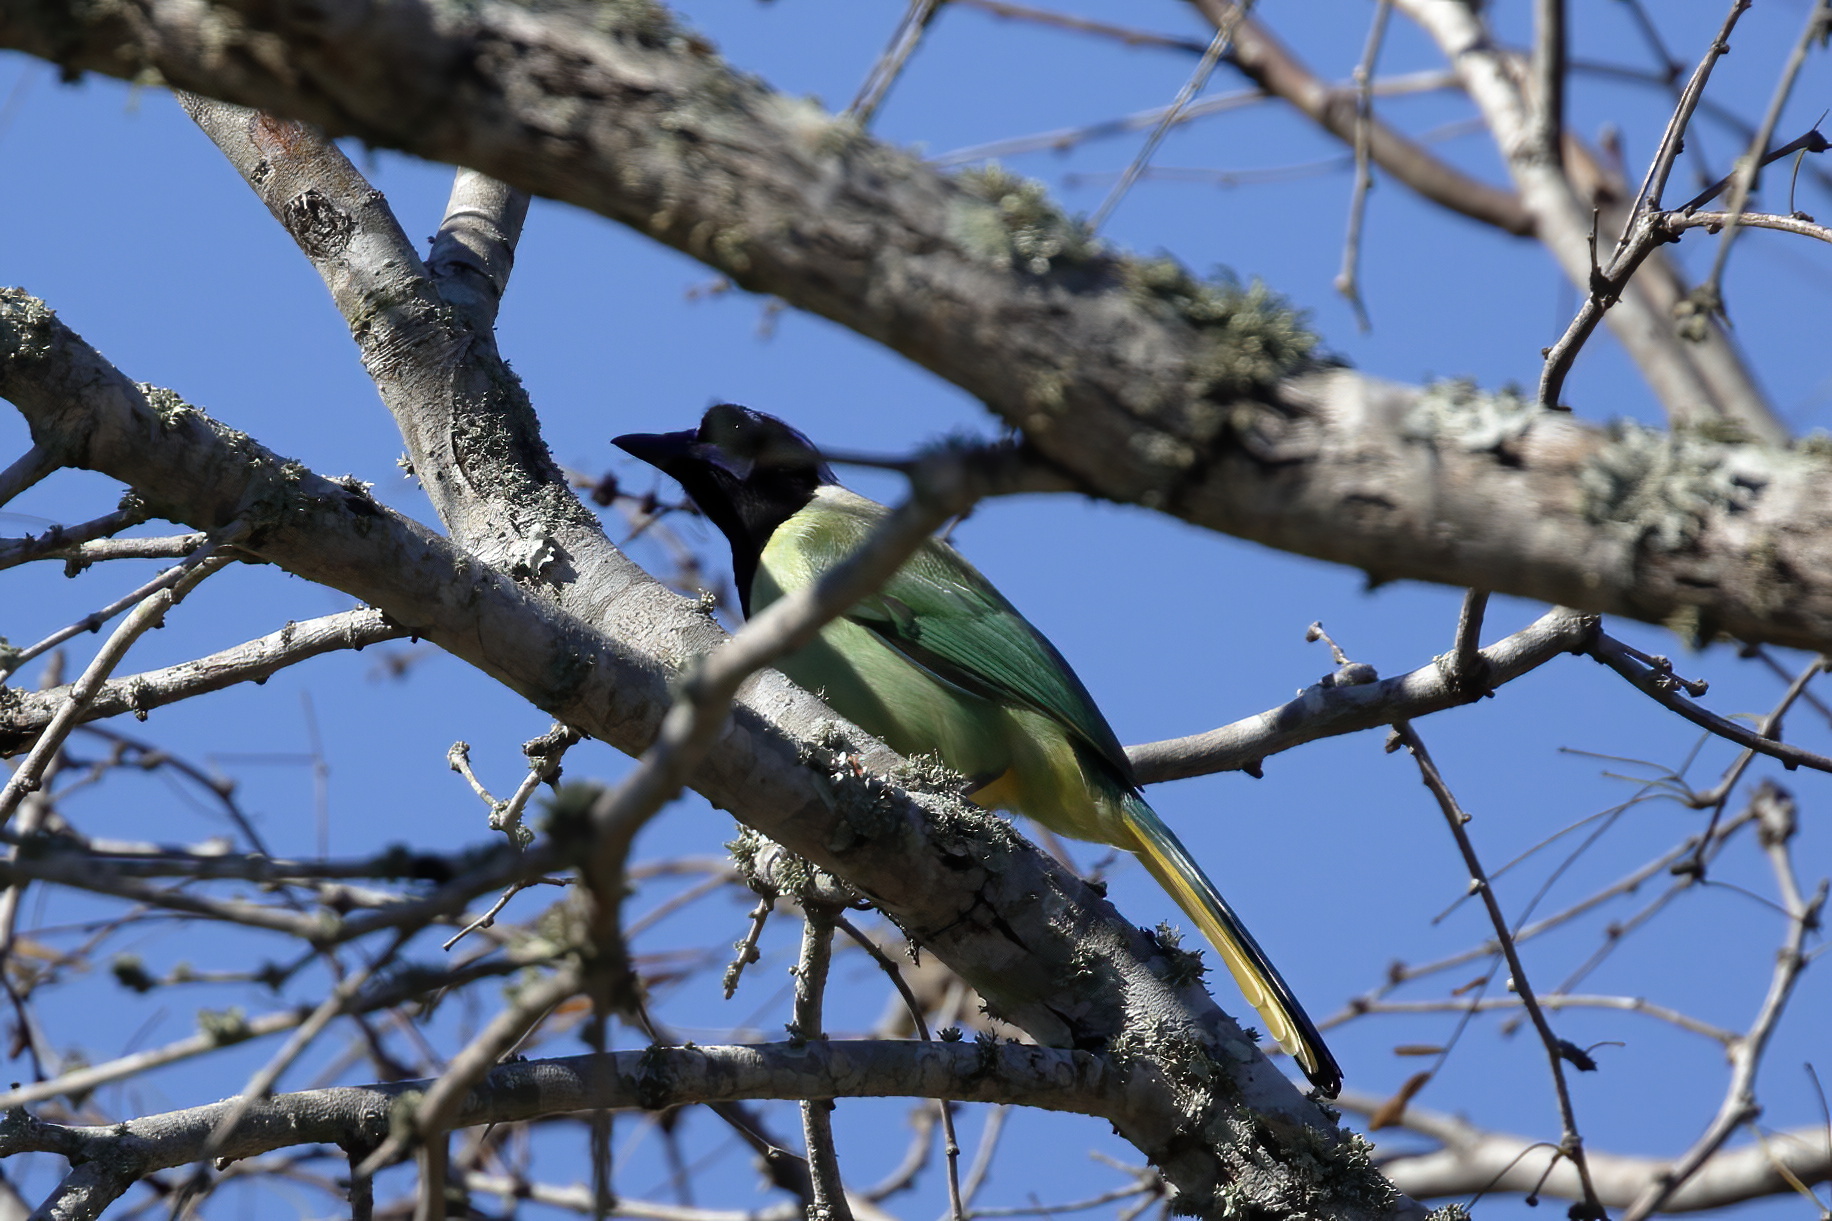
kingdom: Animalia
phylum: Chordata
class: Aves
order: Passeriformes
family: Corvidae
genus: Cyanocorax
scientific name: Cyanocorax yncas
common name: Green jay
